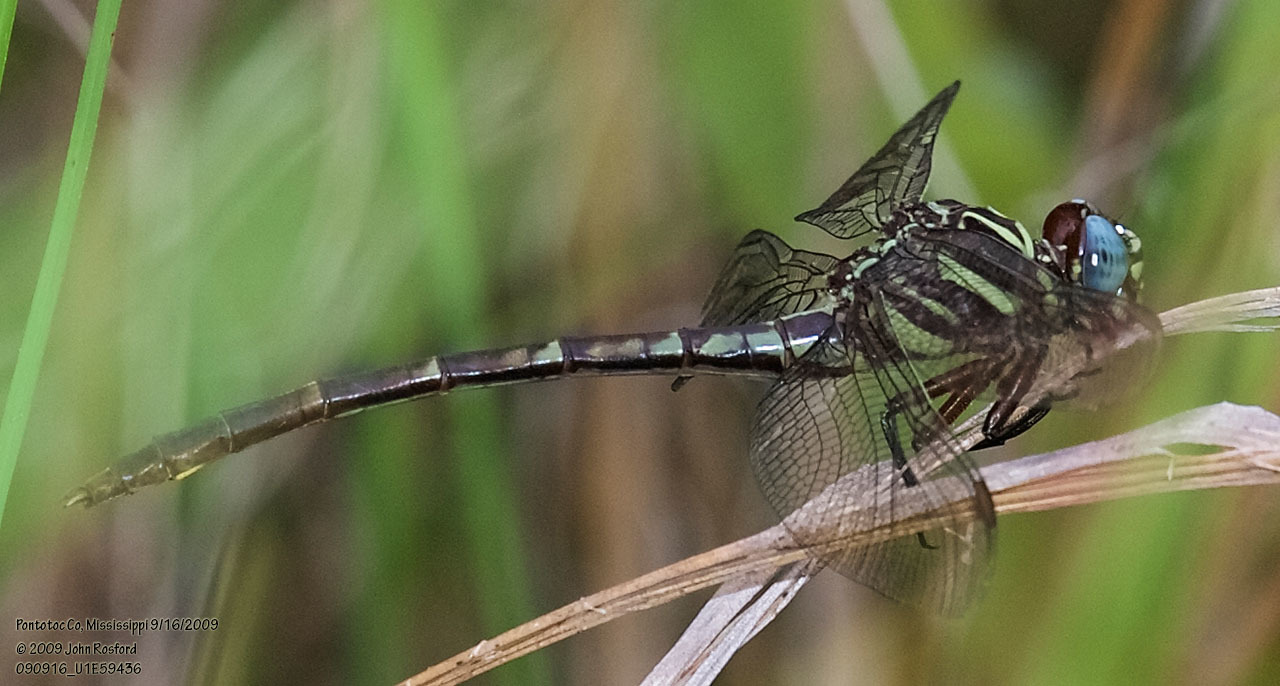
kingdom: Animalia
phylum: Arthropoda
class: Insecta
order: Odonata
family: Gomphidae
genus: Aphylla
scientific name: Aphylla williamsoni
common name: Two-striped forceptail
